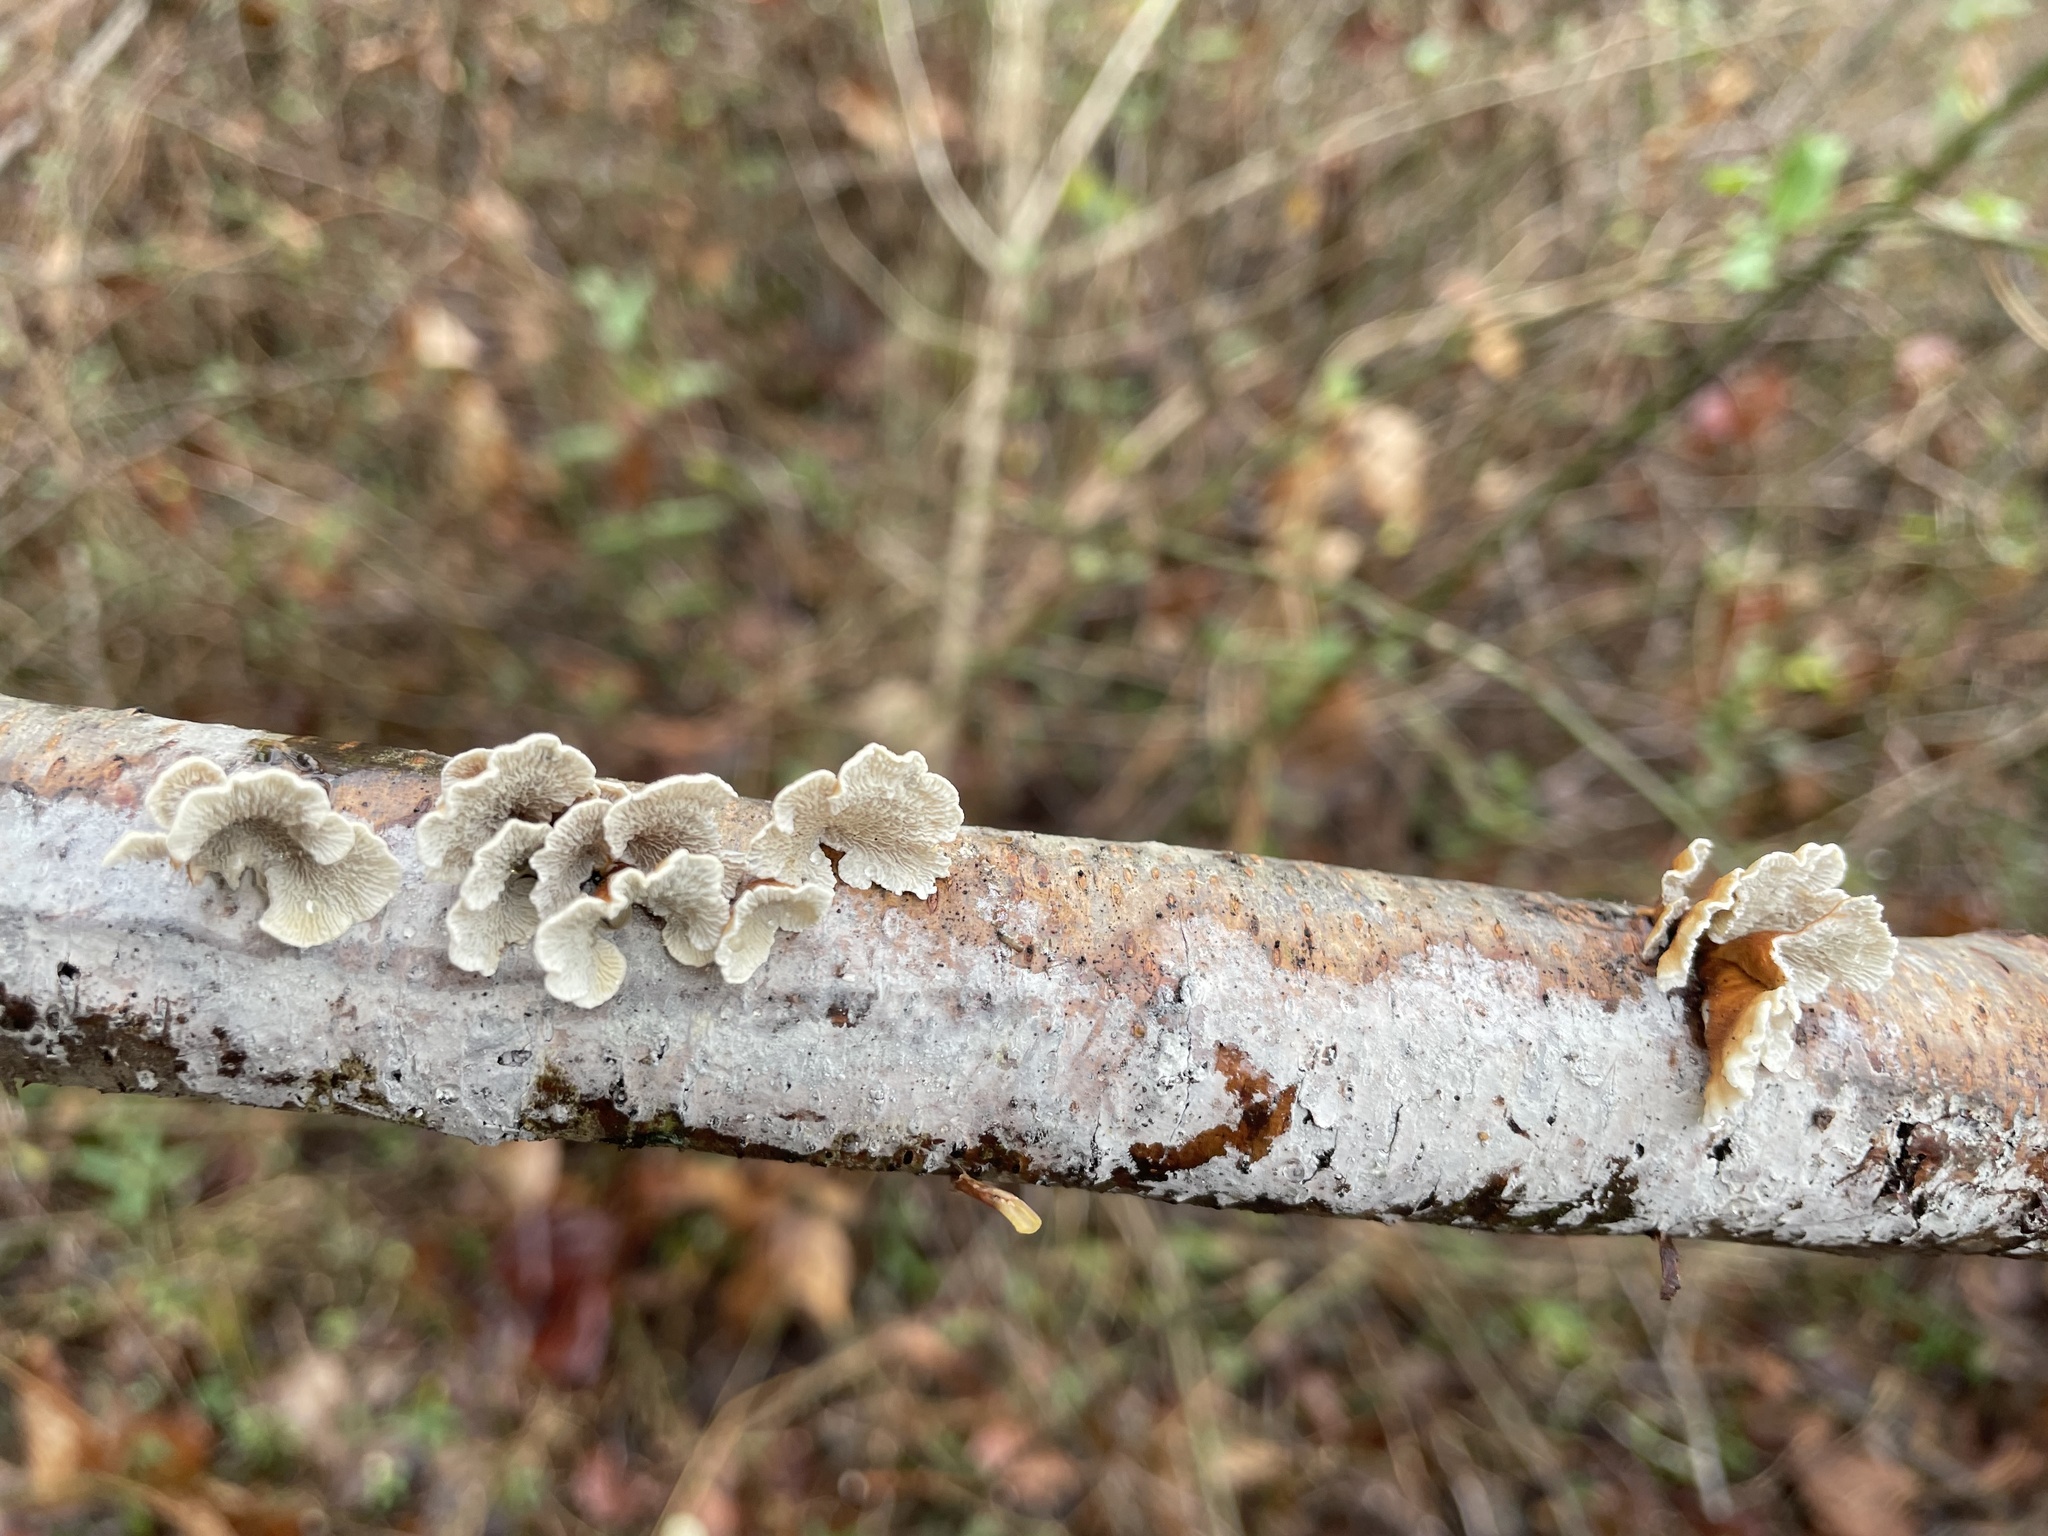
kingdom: Fungi
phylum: Basidiomycota
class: Agaricomycetes
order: Amylocorticiales
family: Amylocorticiaceae
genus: Plicaturopsis
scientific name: Plicaturopsis crispa
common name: Crimped gill
